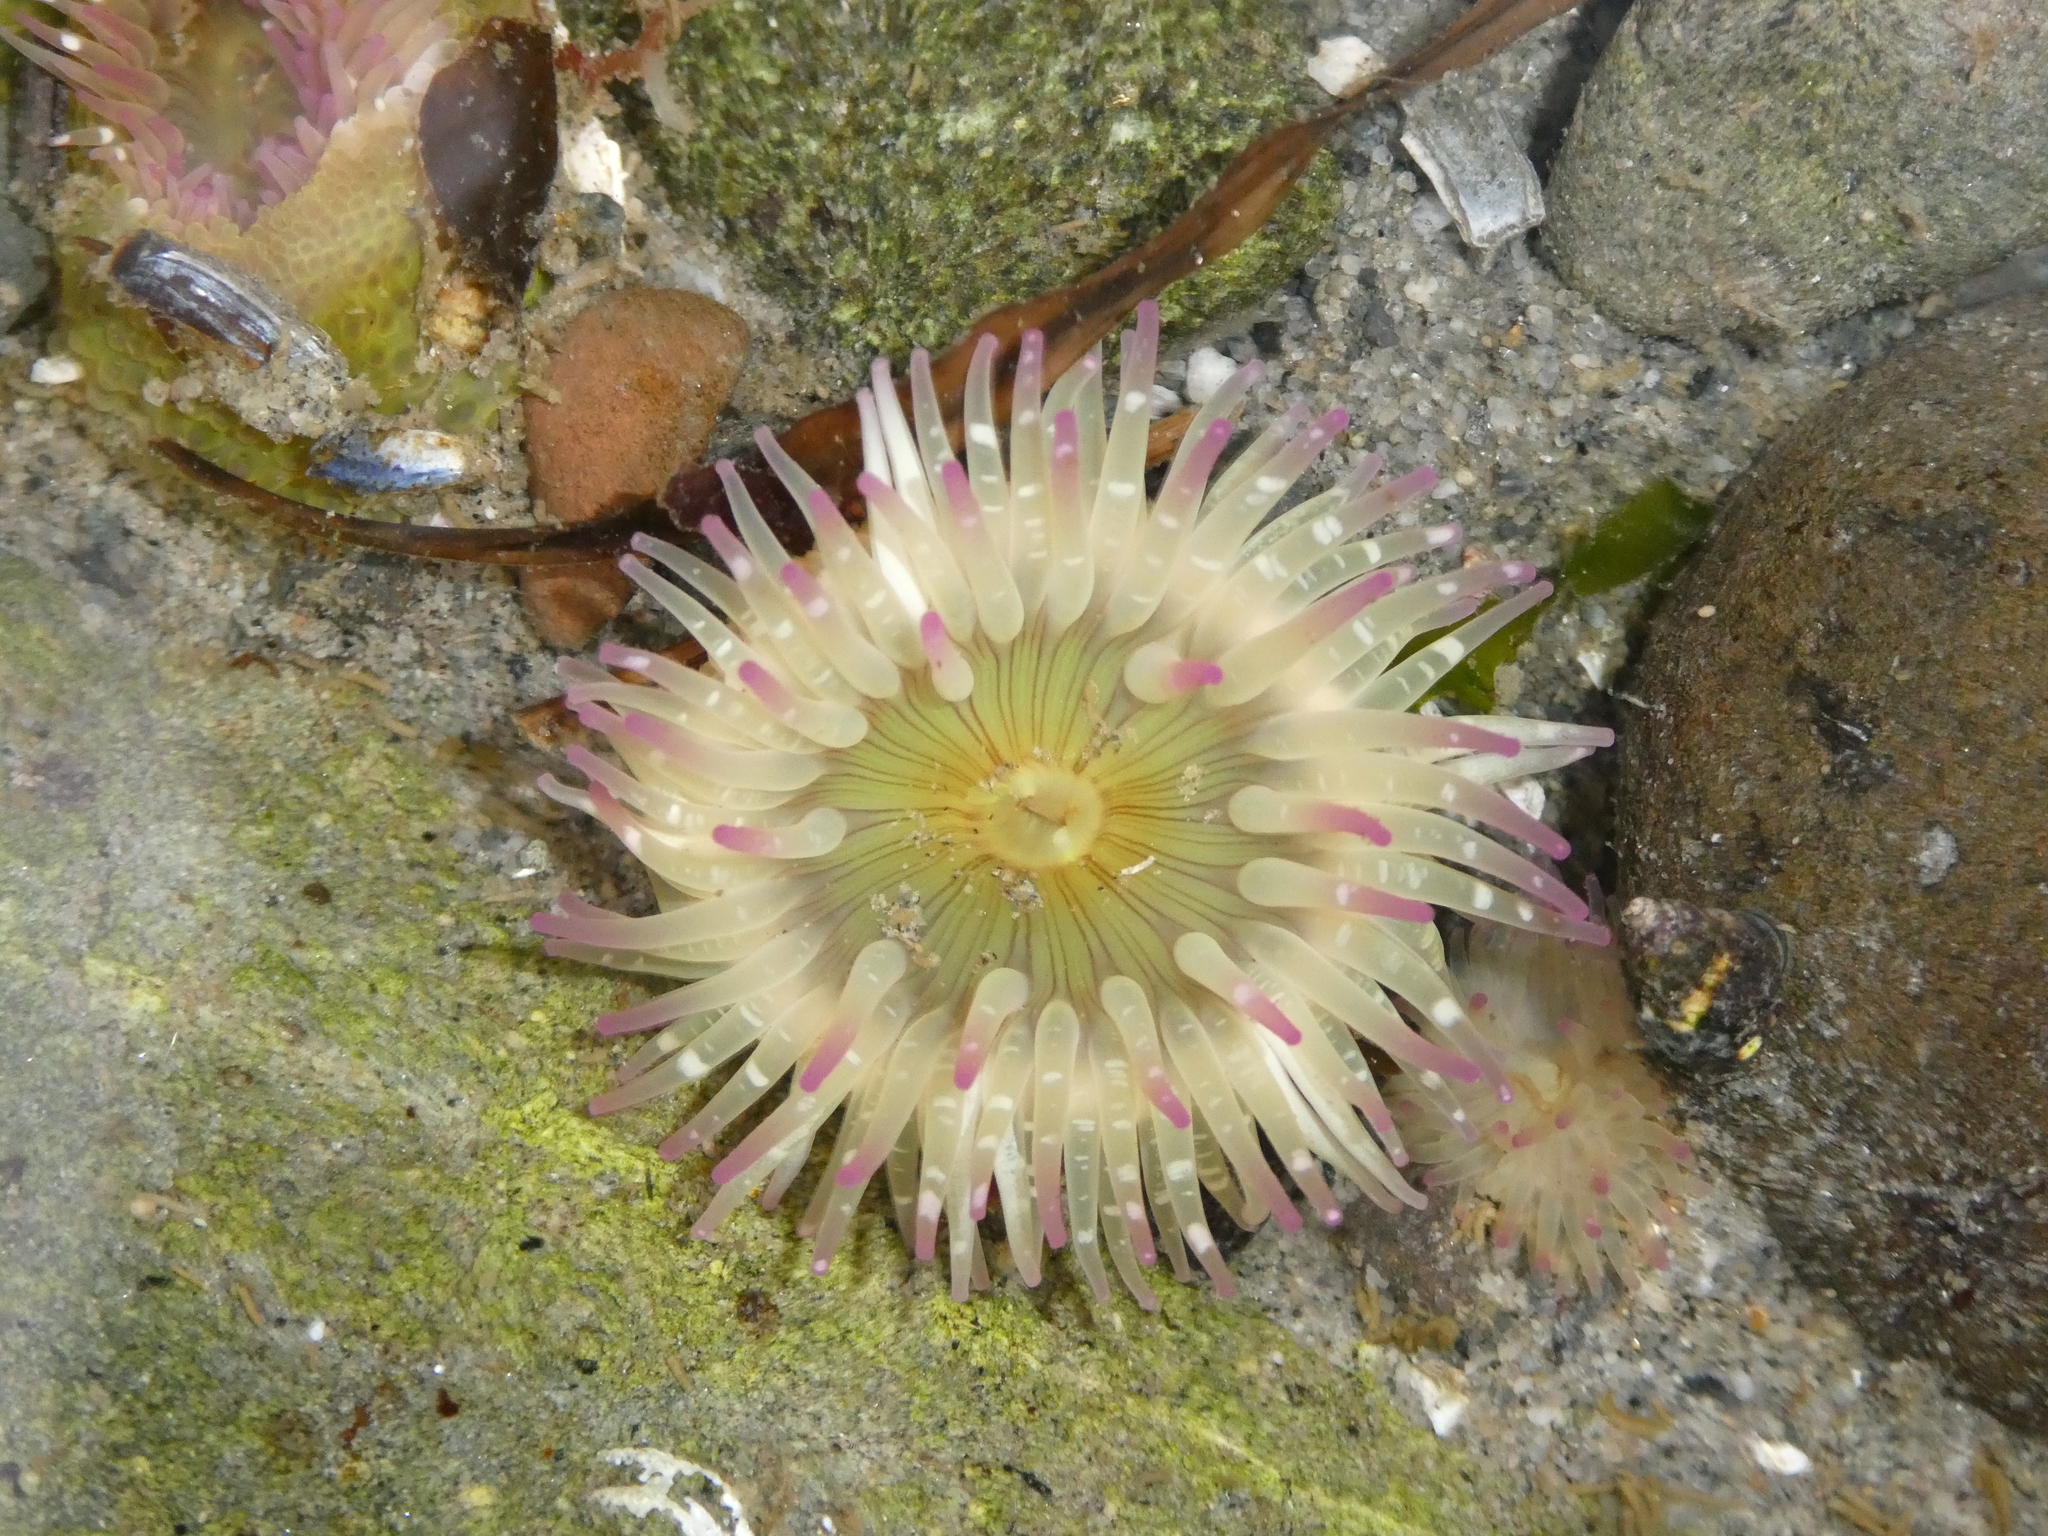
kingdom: Animalia
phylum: Cnidaria
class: Anthozoa
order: Actiniaria
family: Actiniidae
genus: Anthopleura
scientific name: Anthopleura elegantissima
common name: Clonal anemone
